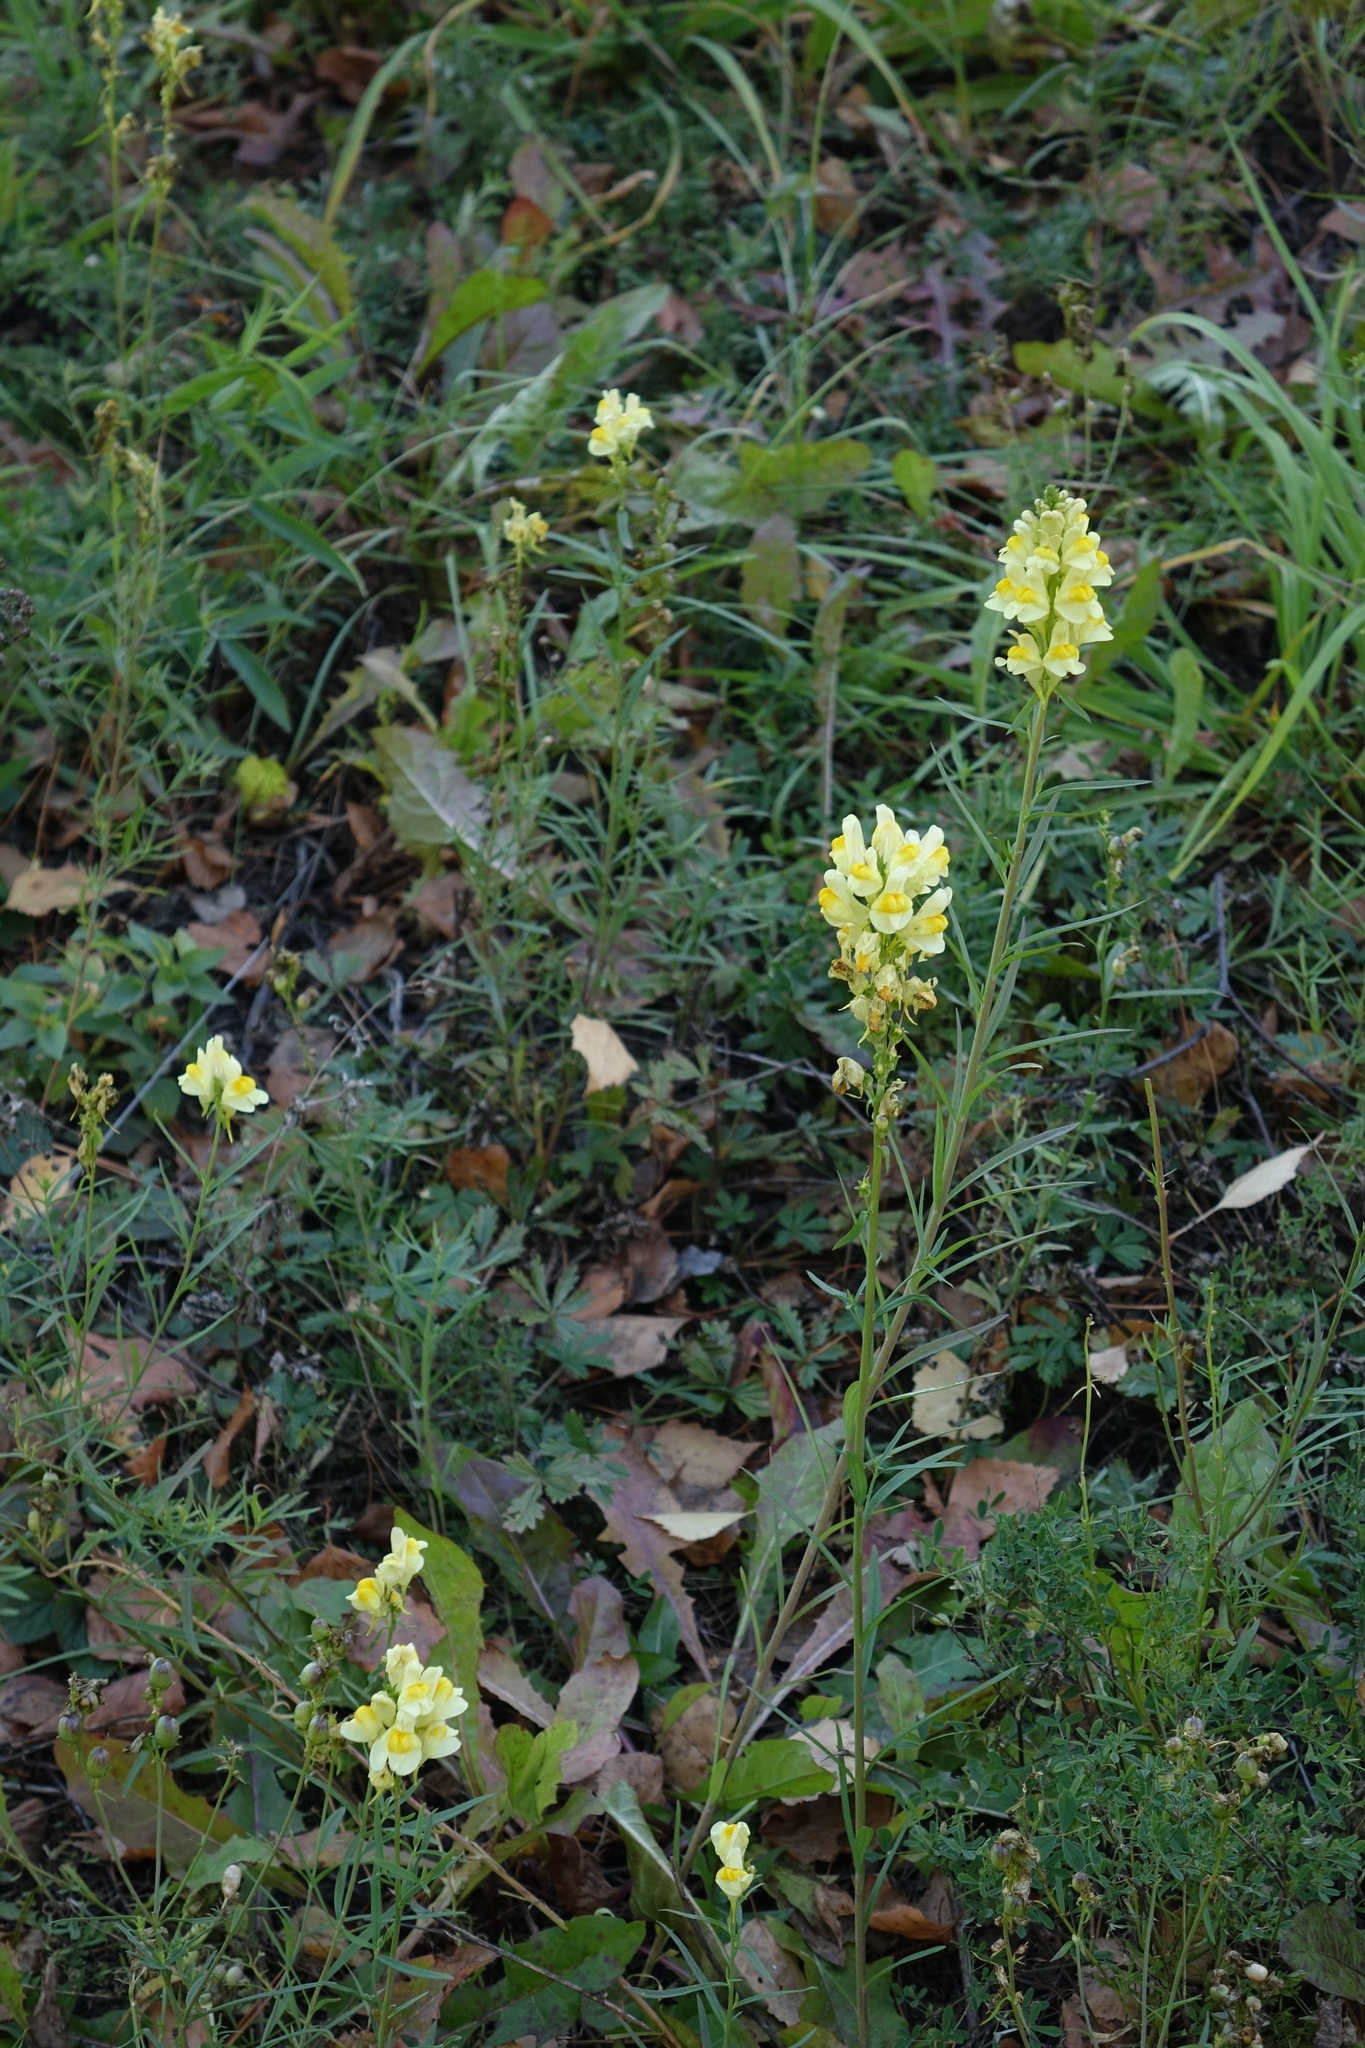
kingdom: Plantae
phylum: Tracheophyta
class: Magnoliopsida
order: Lamiales
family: Plantaginaceae
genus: Linaria
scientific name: Linaria vulgaris
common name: Butter and eggs
